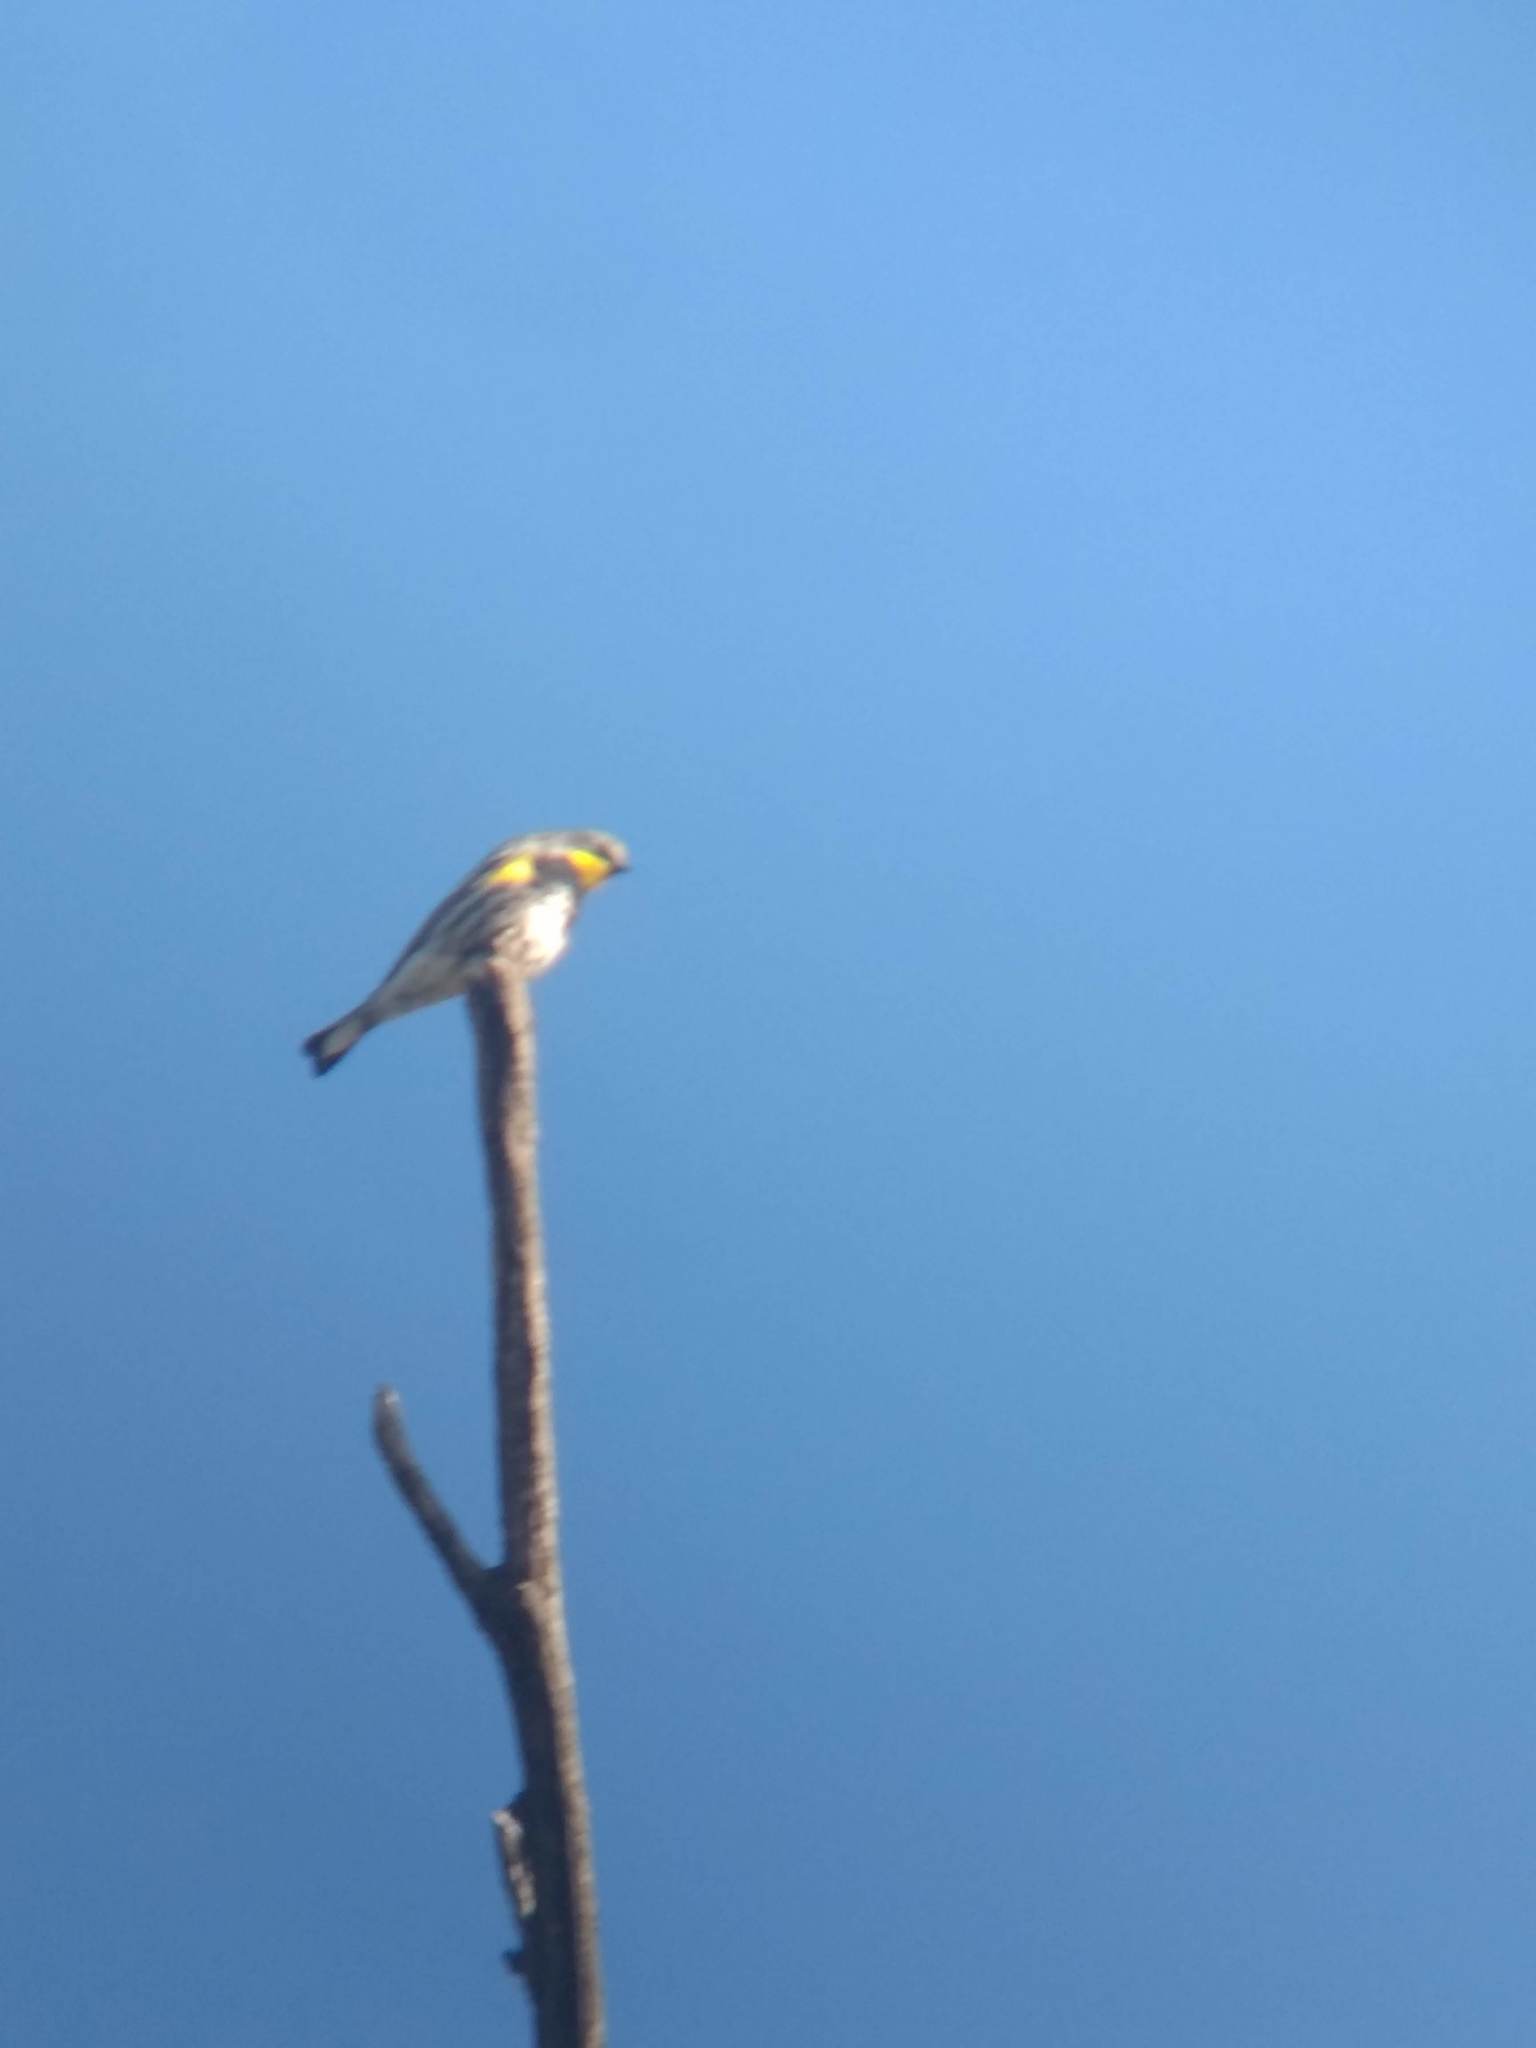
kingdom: Animalia
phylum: Chordata
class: Aves
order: Passeriformes
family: Parulidae
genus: Setophaga
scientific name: Setophaga coronata
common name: Myrtle warbler
